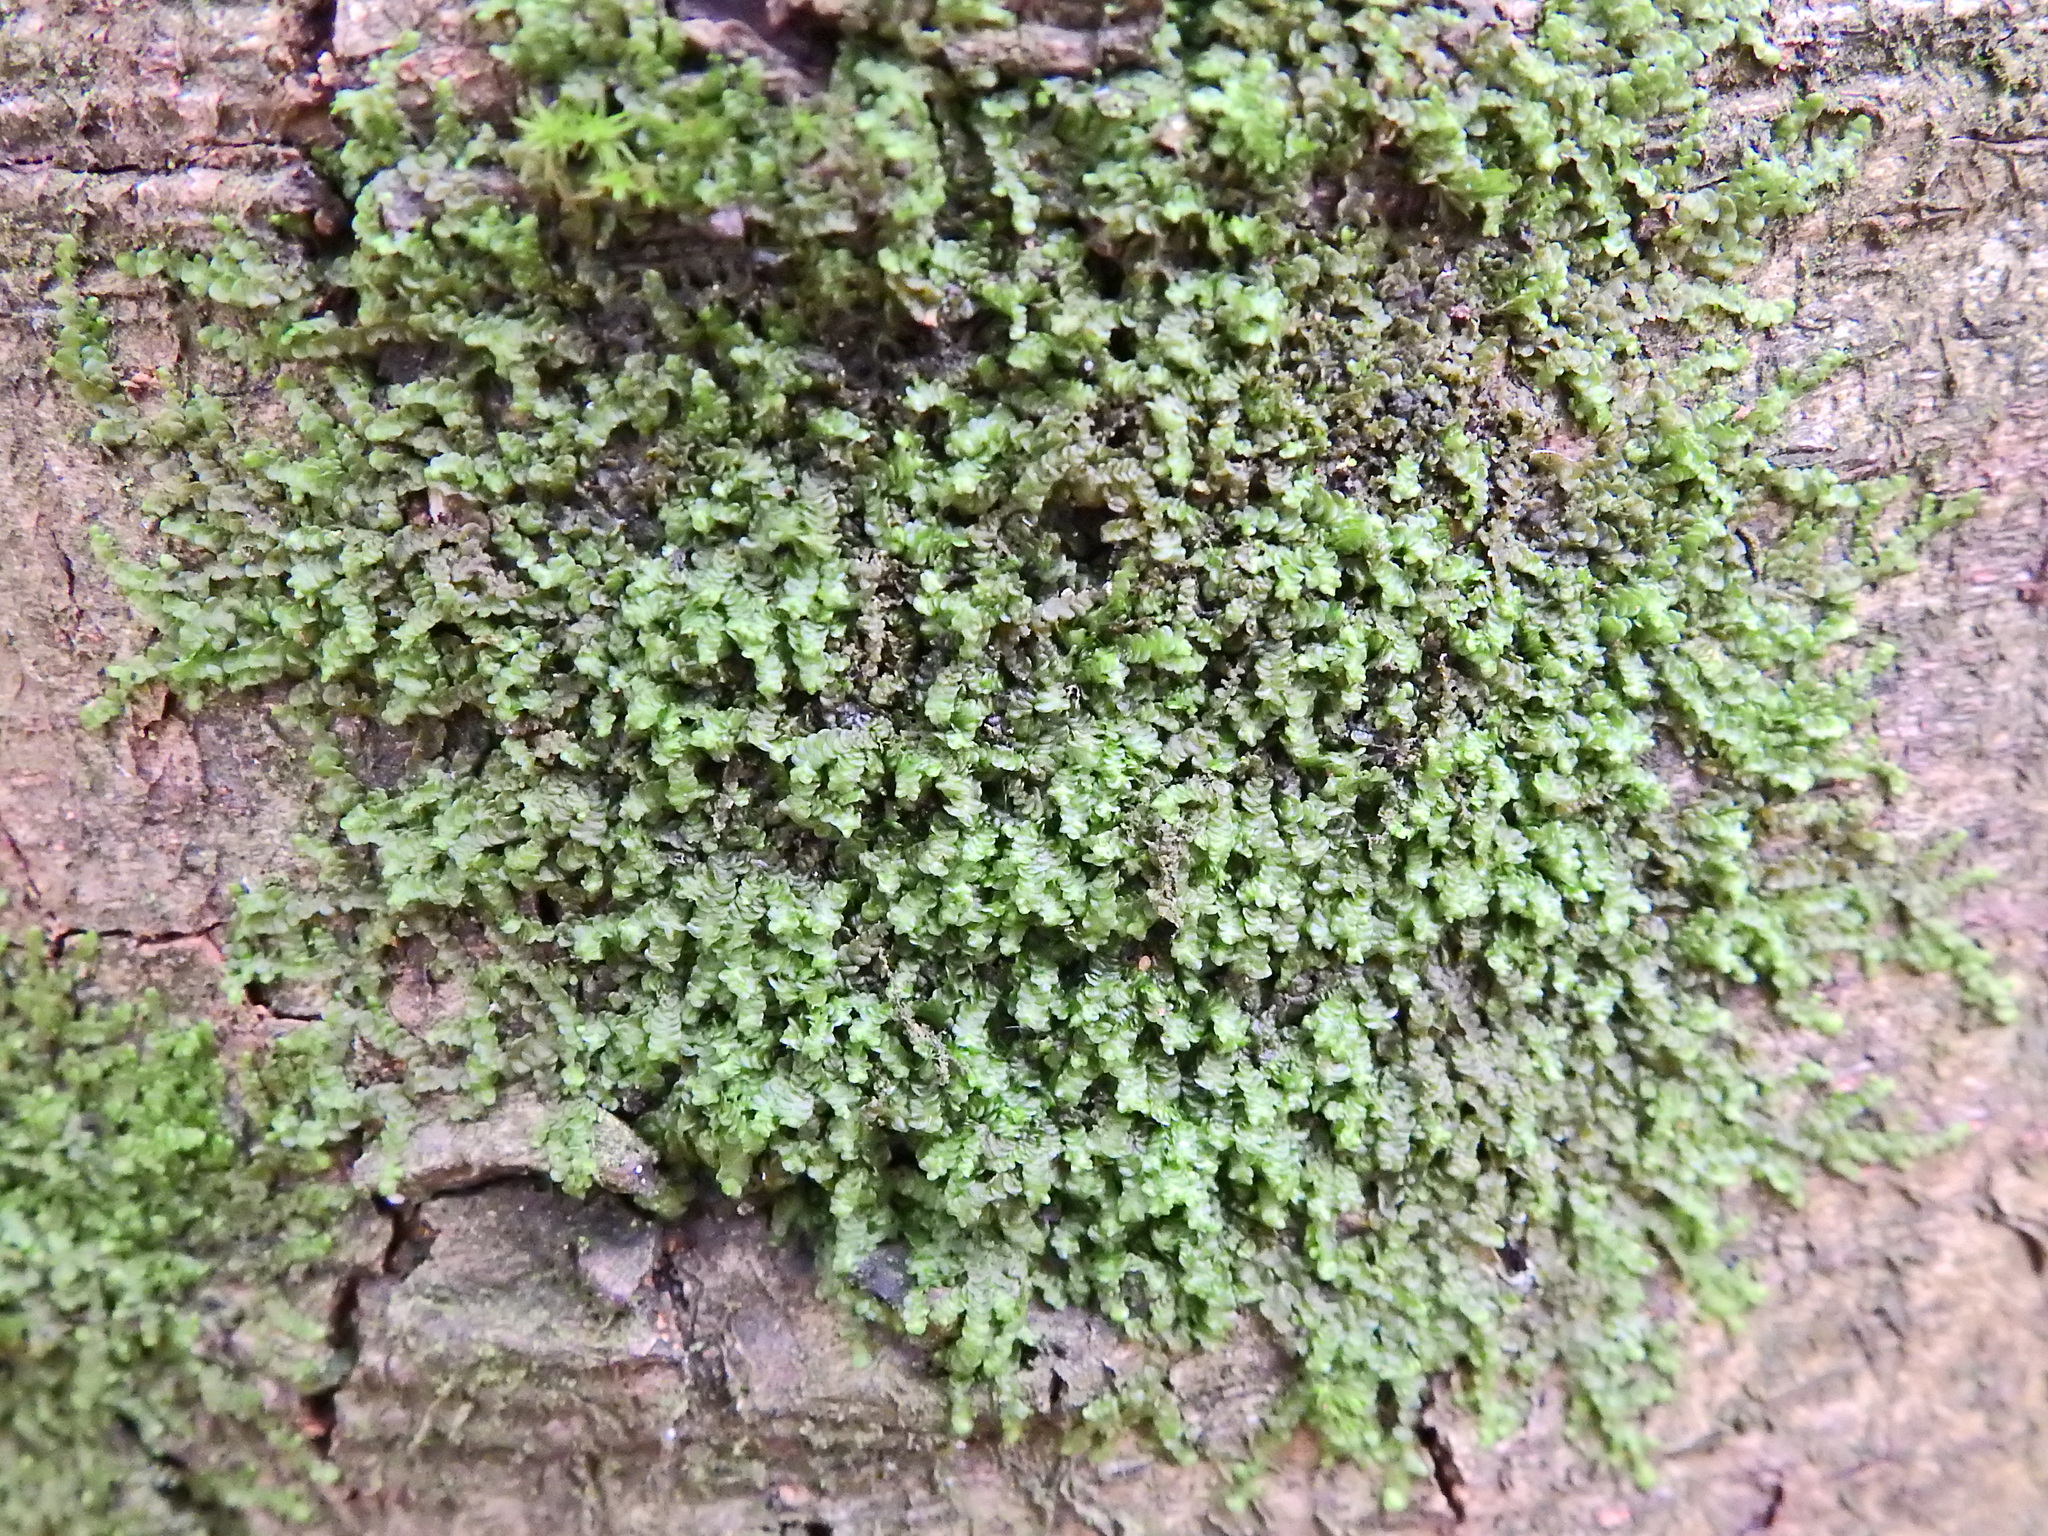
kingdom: Plantae
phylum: Marchantiophyta
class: Jungermanniopsida
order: Porellales
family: Frullaniaceae
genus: Frullania
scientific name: Frullania dilatata
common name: Dilated scalewort
